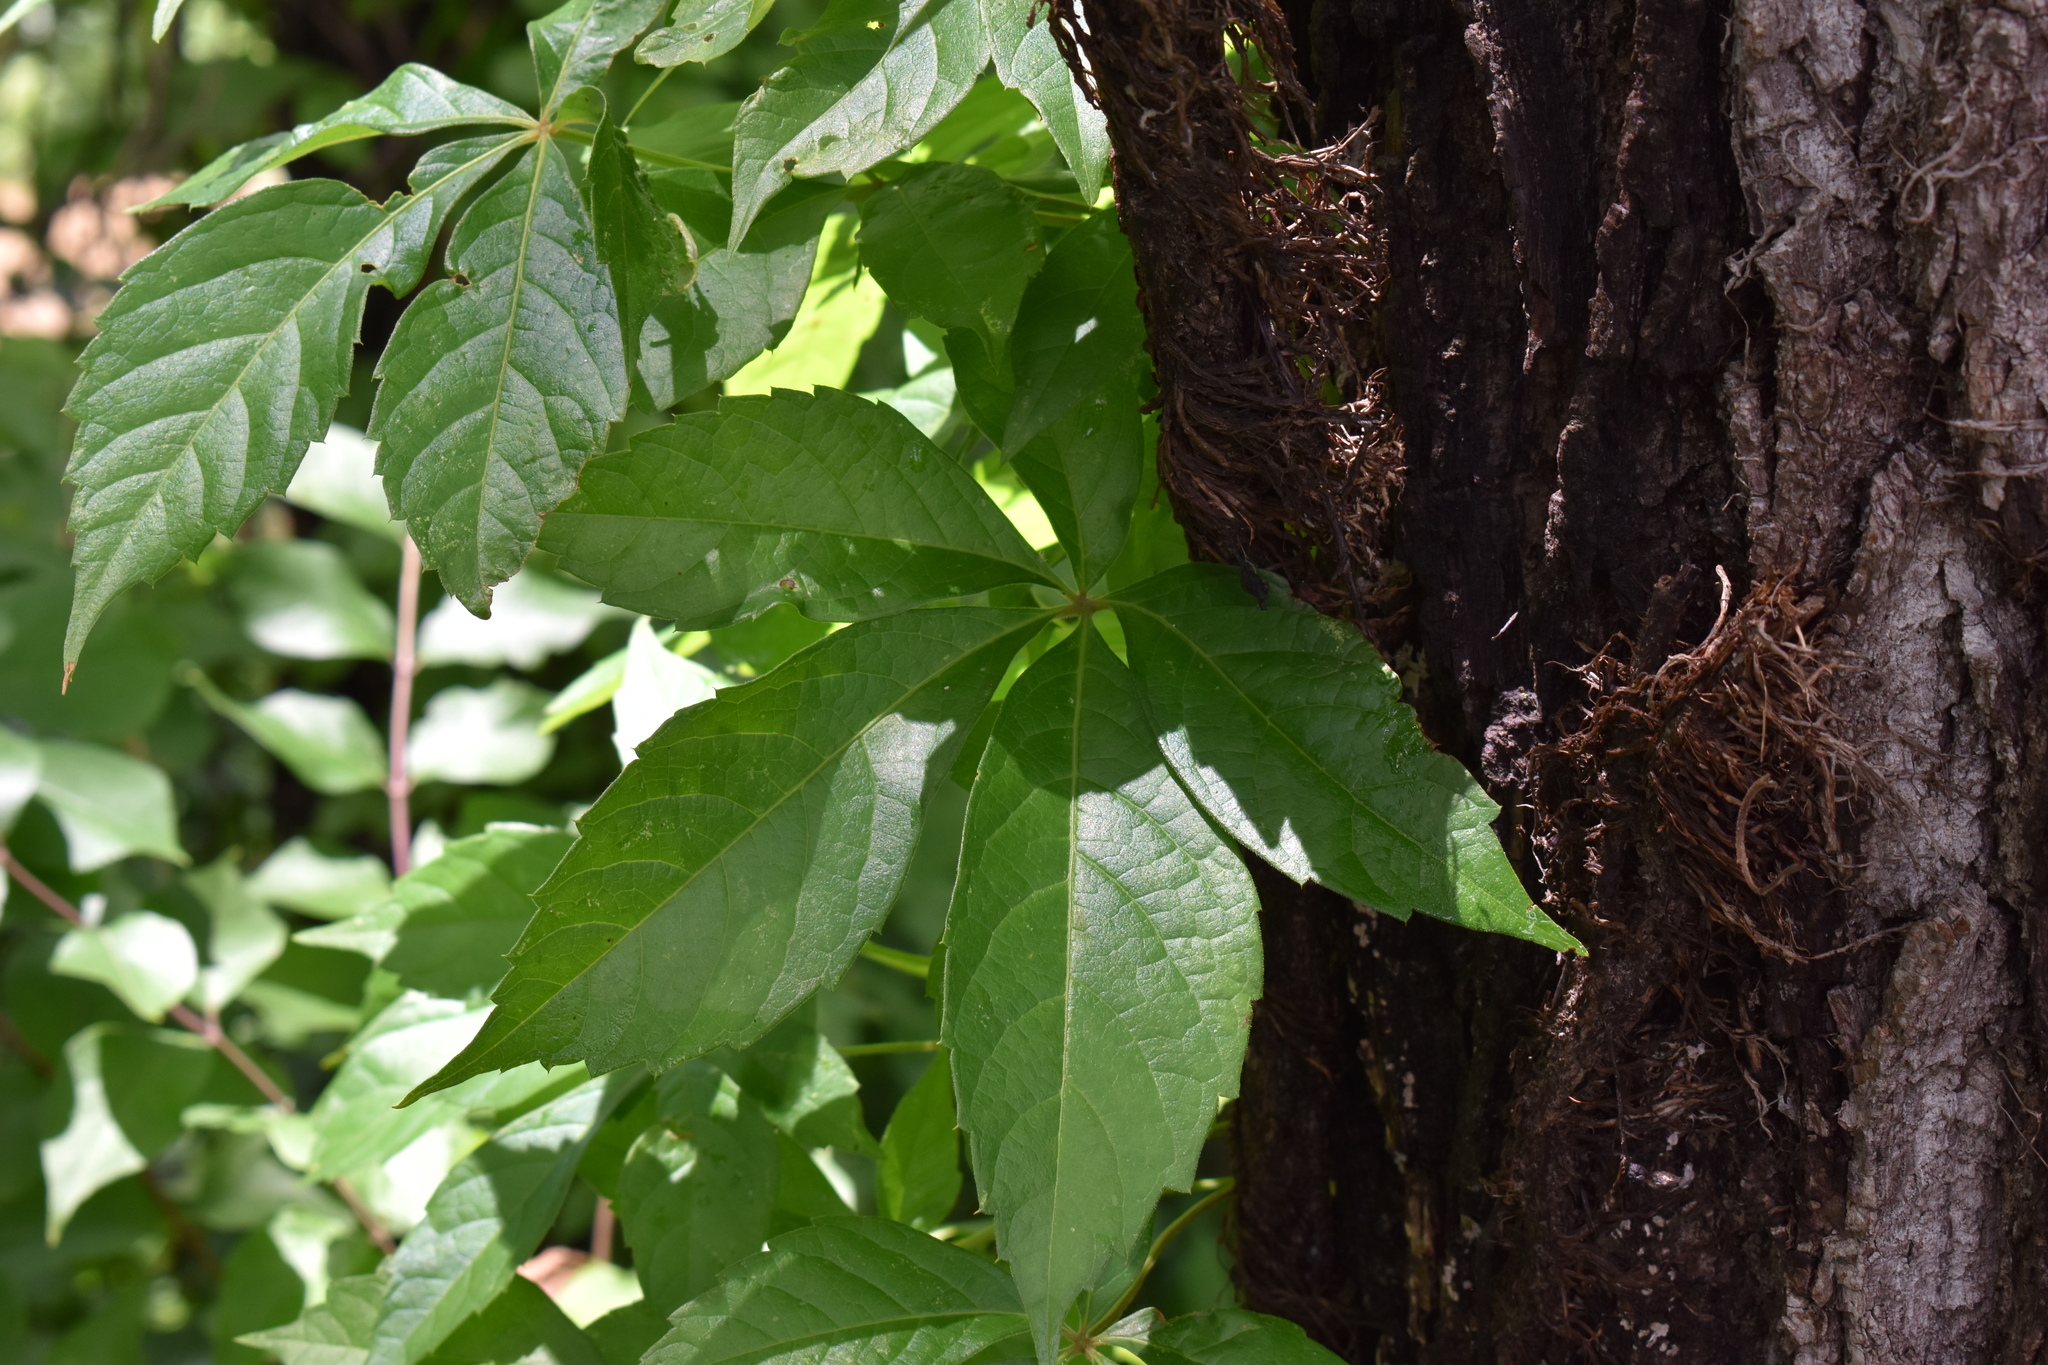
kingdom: Plantae
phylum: Tracheophyta
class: Magnoliopsida
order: Vitales
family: Vitaceae
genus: Parthenocissus
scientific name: Parthenocissus quinquefolia
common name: Virginia-creeper
